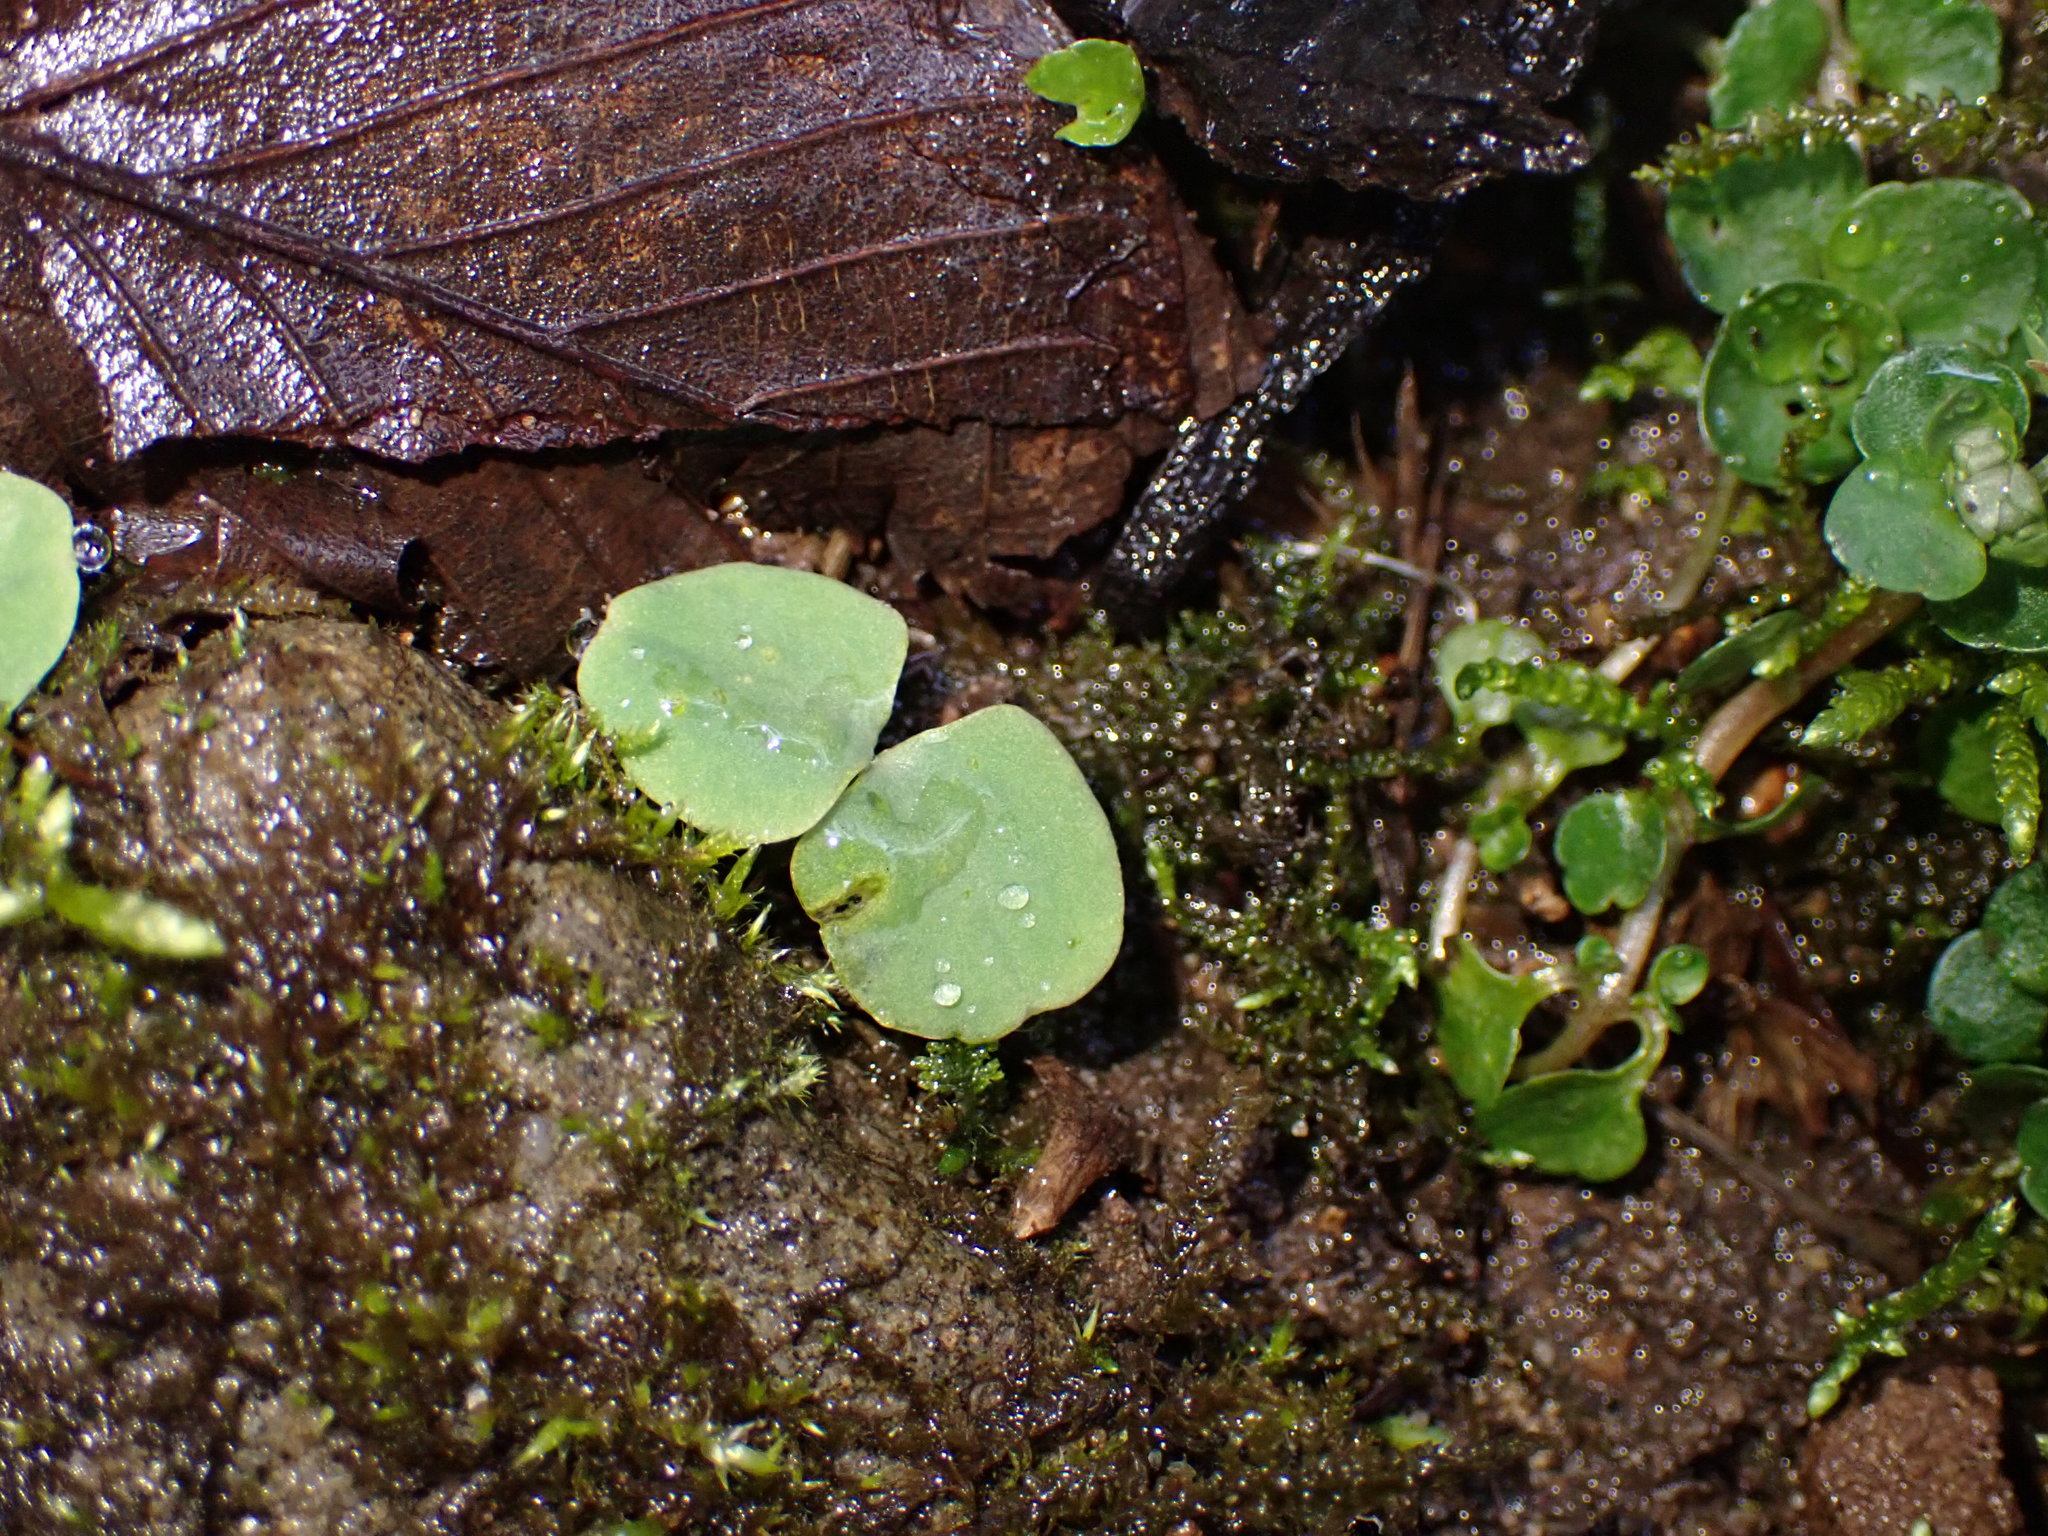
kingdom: Plantae
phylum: Tracheophyta
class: Magnoliopsida
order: Ericales
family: Balsaminaceae
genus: Impatiens
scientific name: Impatiens
